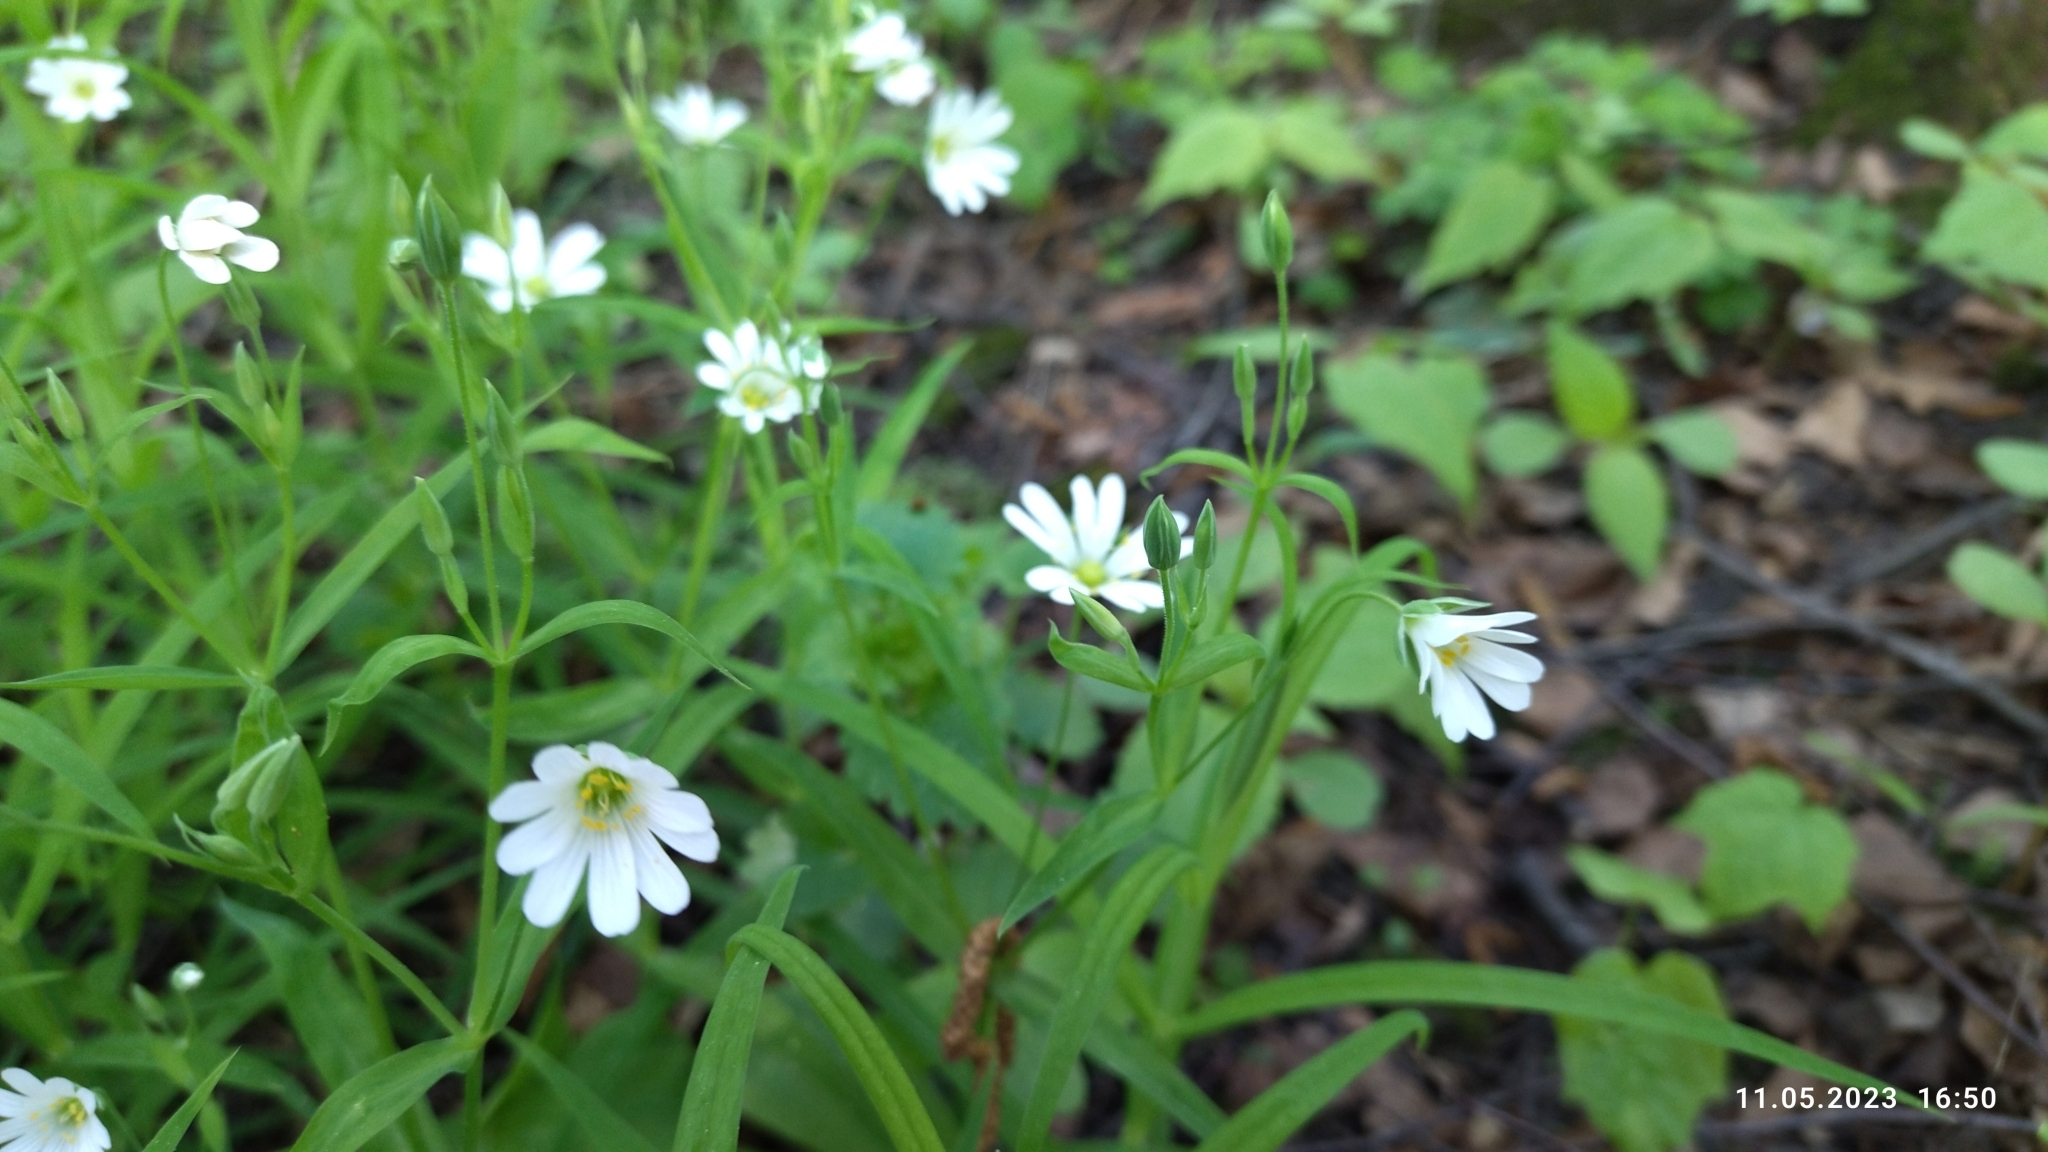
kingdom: Plantae
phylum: Tracheophyta
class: Magnoliopsida
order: Caryophyllales
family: Caryophyllaceae
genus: Rabelera
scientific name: Rabelera holostea
